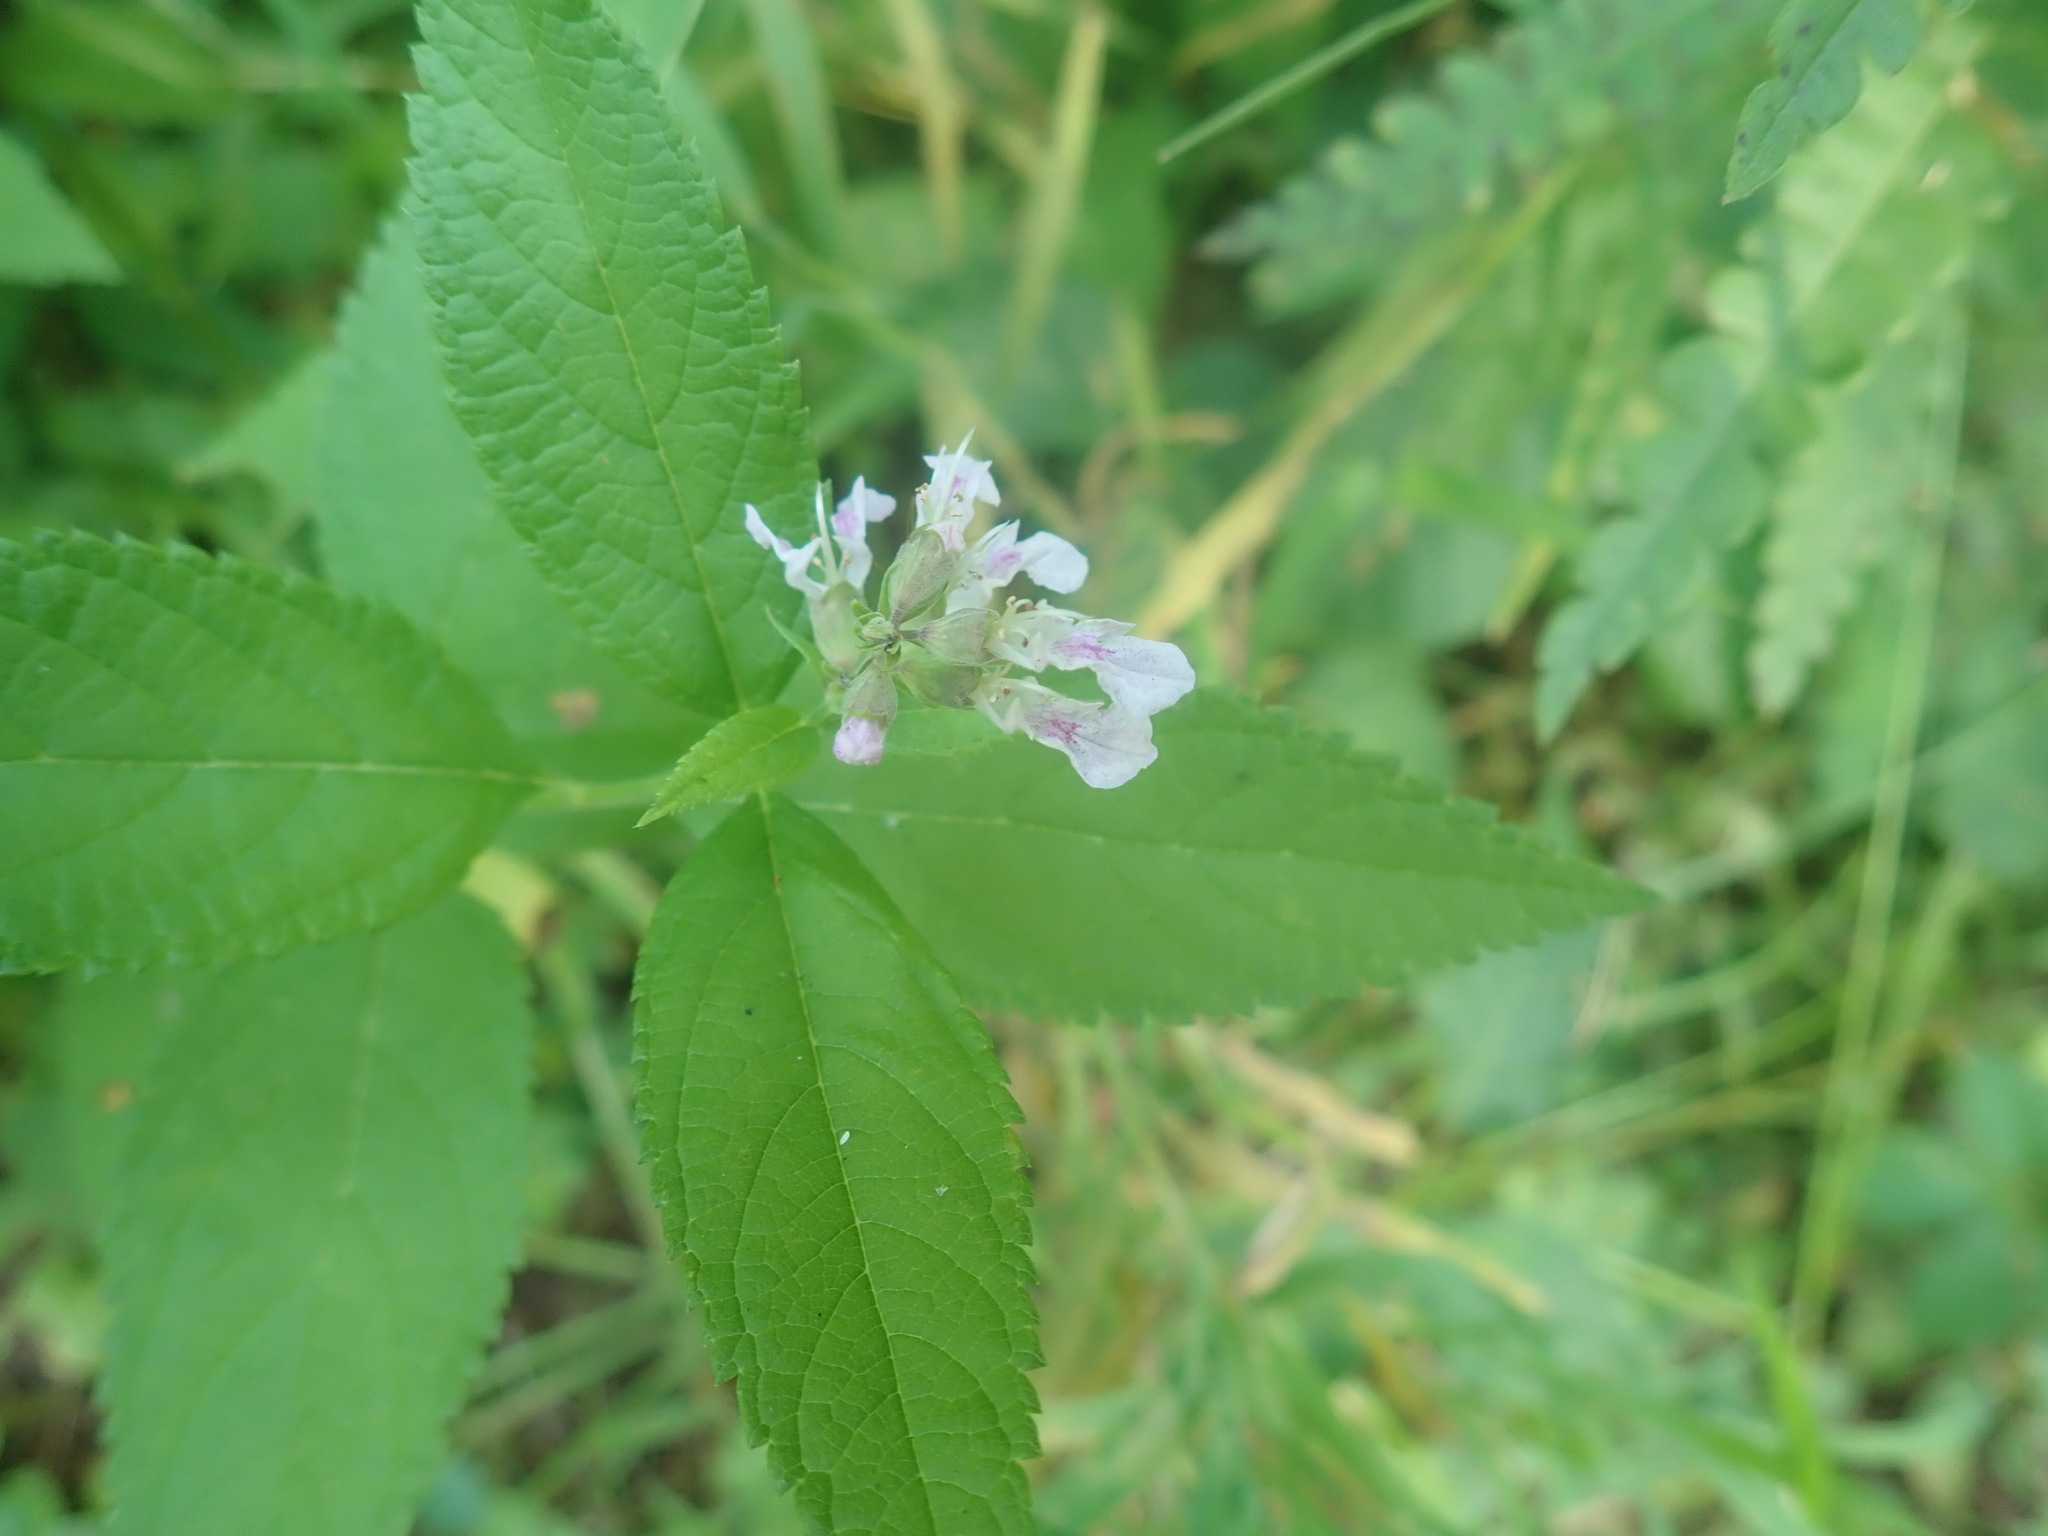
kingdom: Plantae
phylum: Tracheophyta
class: Magnoliopsida
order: Lamiales
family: Lamiaceae
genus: Teucrium
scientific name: Teucrium canadense
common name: American germander
